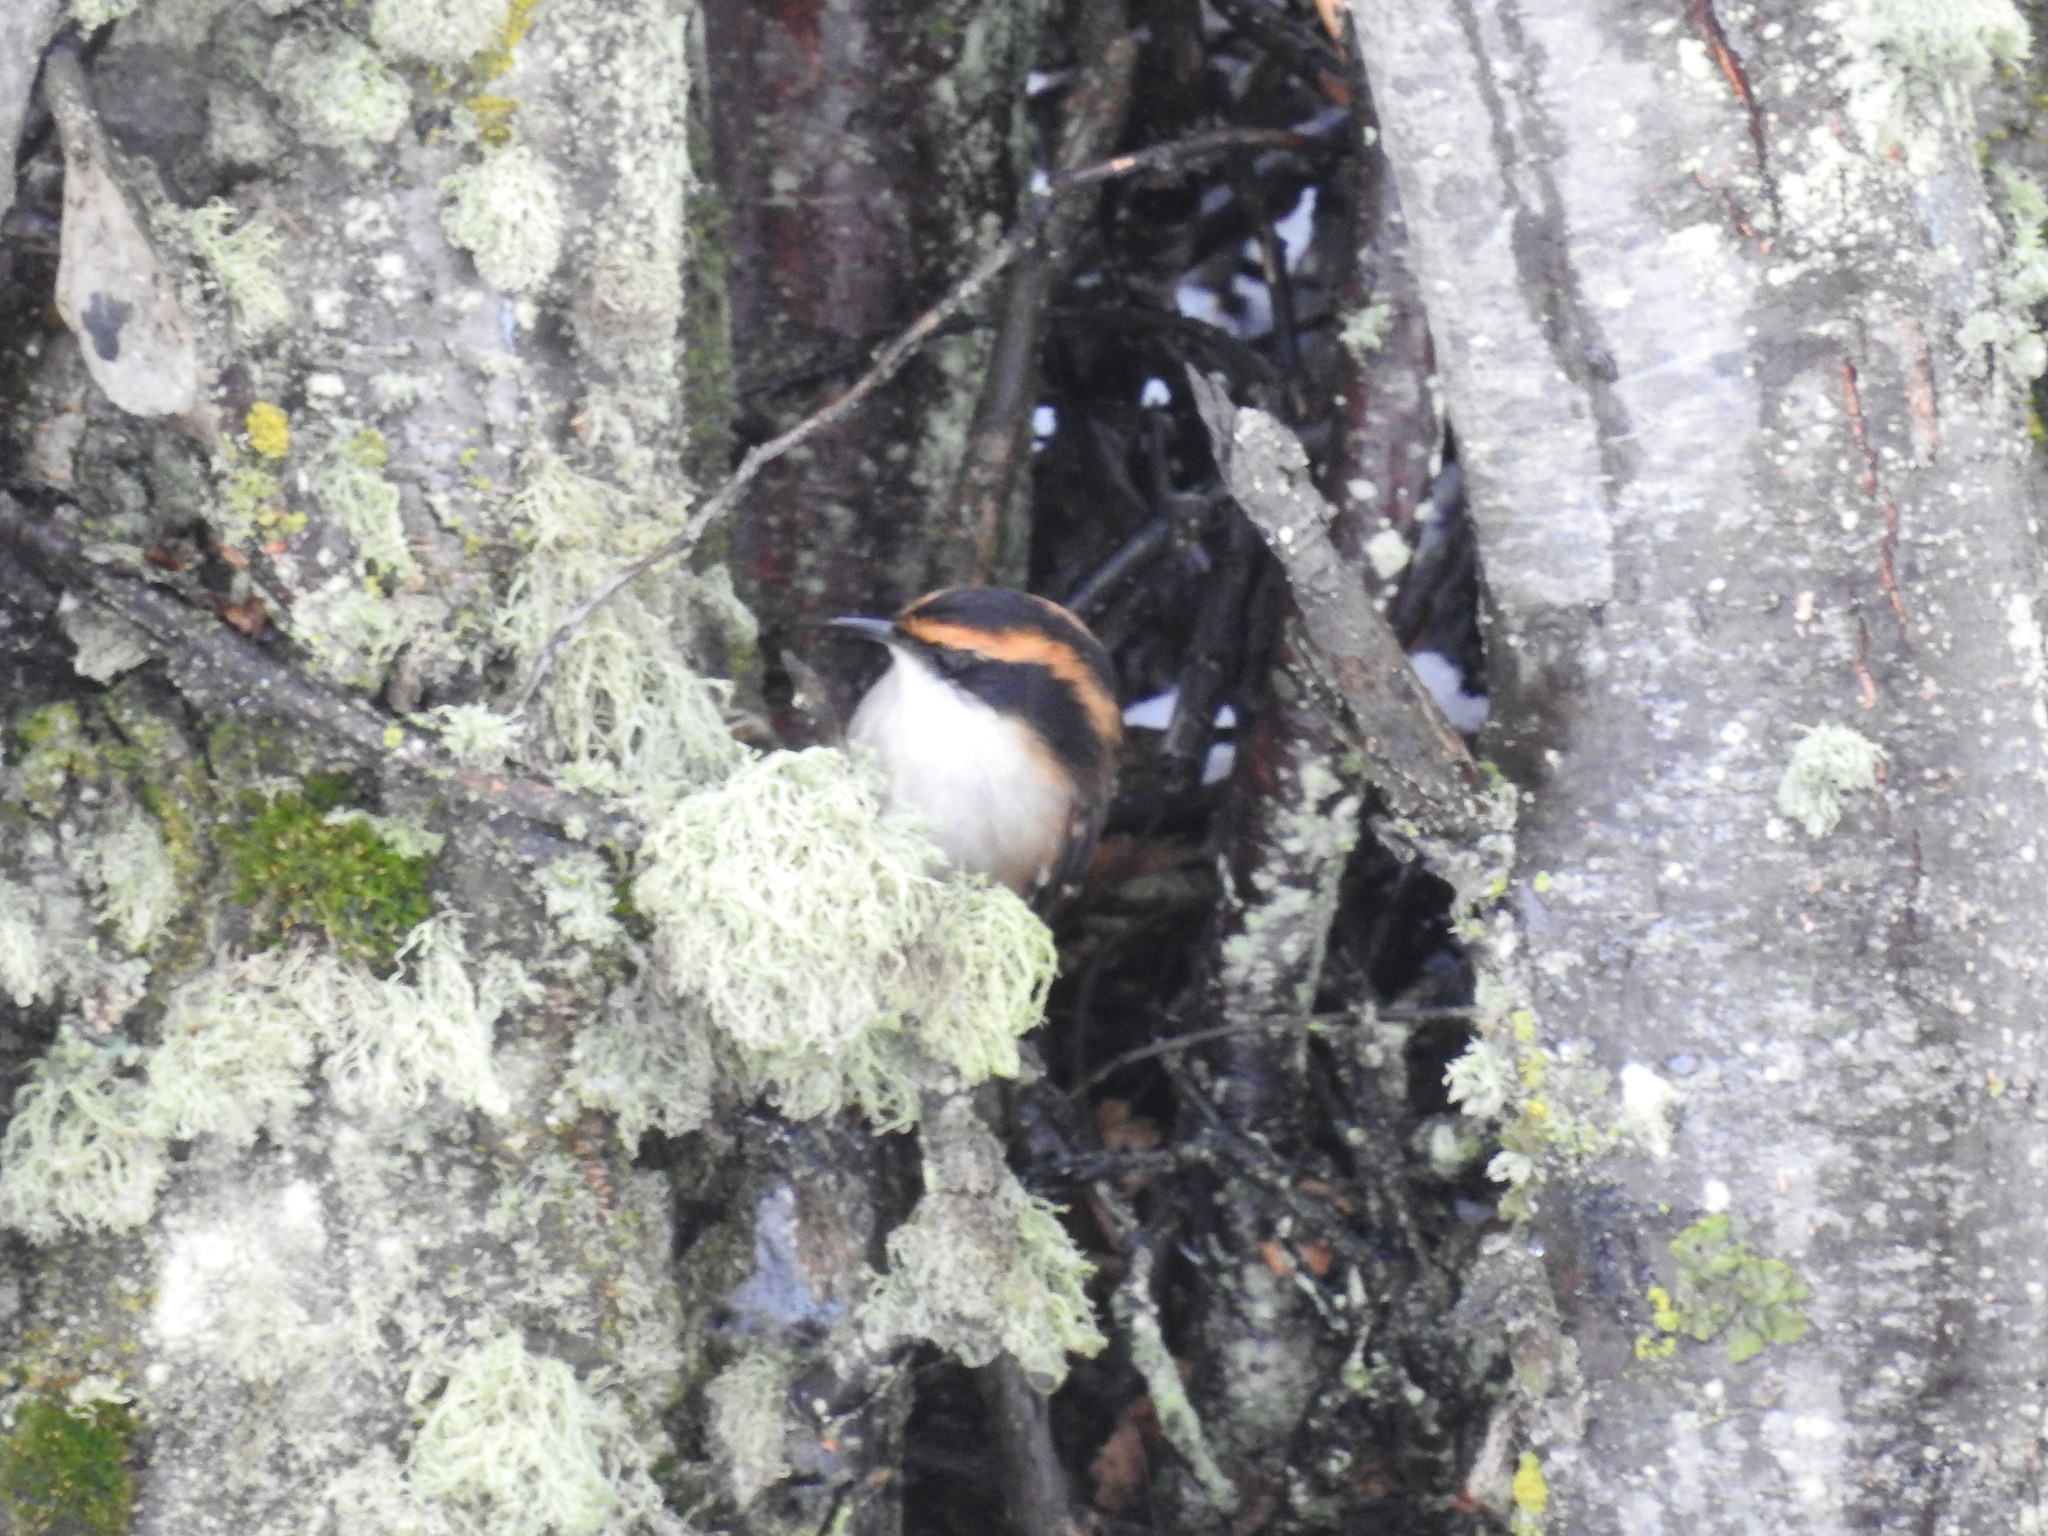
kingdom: Animalia
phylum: Chordata
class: Aves
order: Passeriformes
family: Furnariidae
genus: Aphrastura
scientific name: Aphrastura spinicauda
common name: Thorn-tailed rayadito
